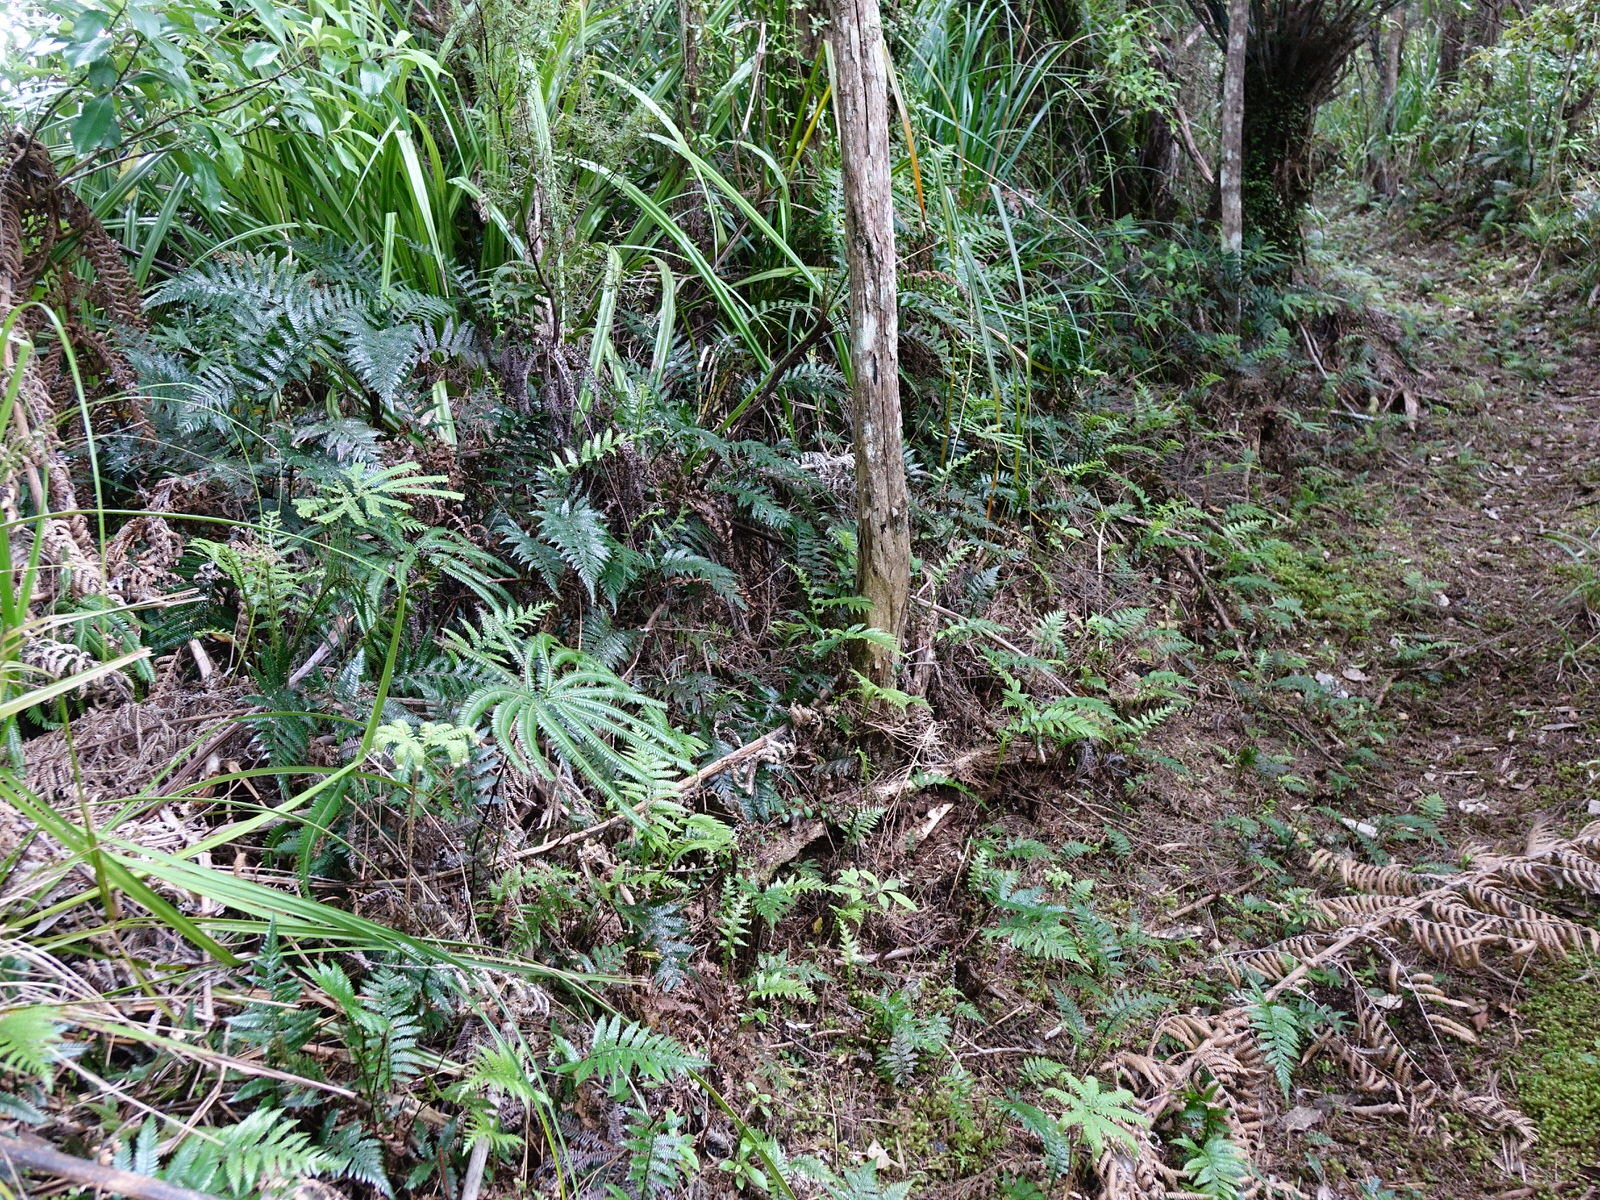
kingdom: Plantae
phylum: Tracheophyta
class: Polypodiopsida
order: Gleicheniales
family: Gleicheniaceae
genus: Sticherus
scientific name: Sticherus cunninghamii
